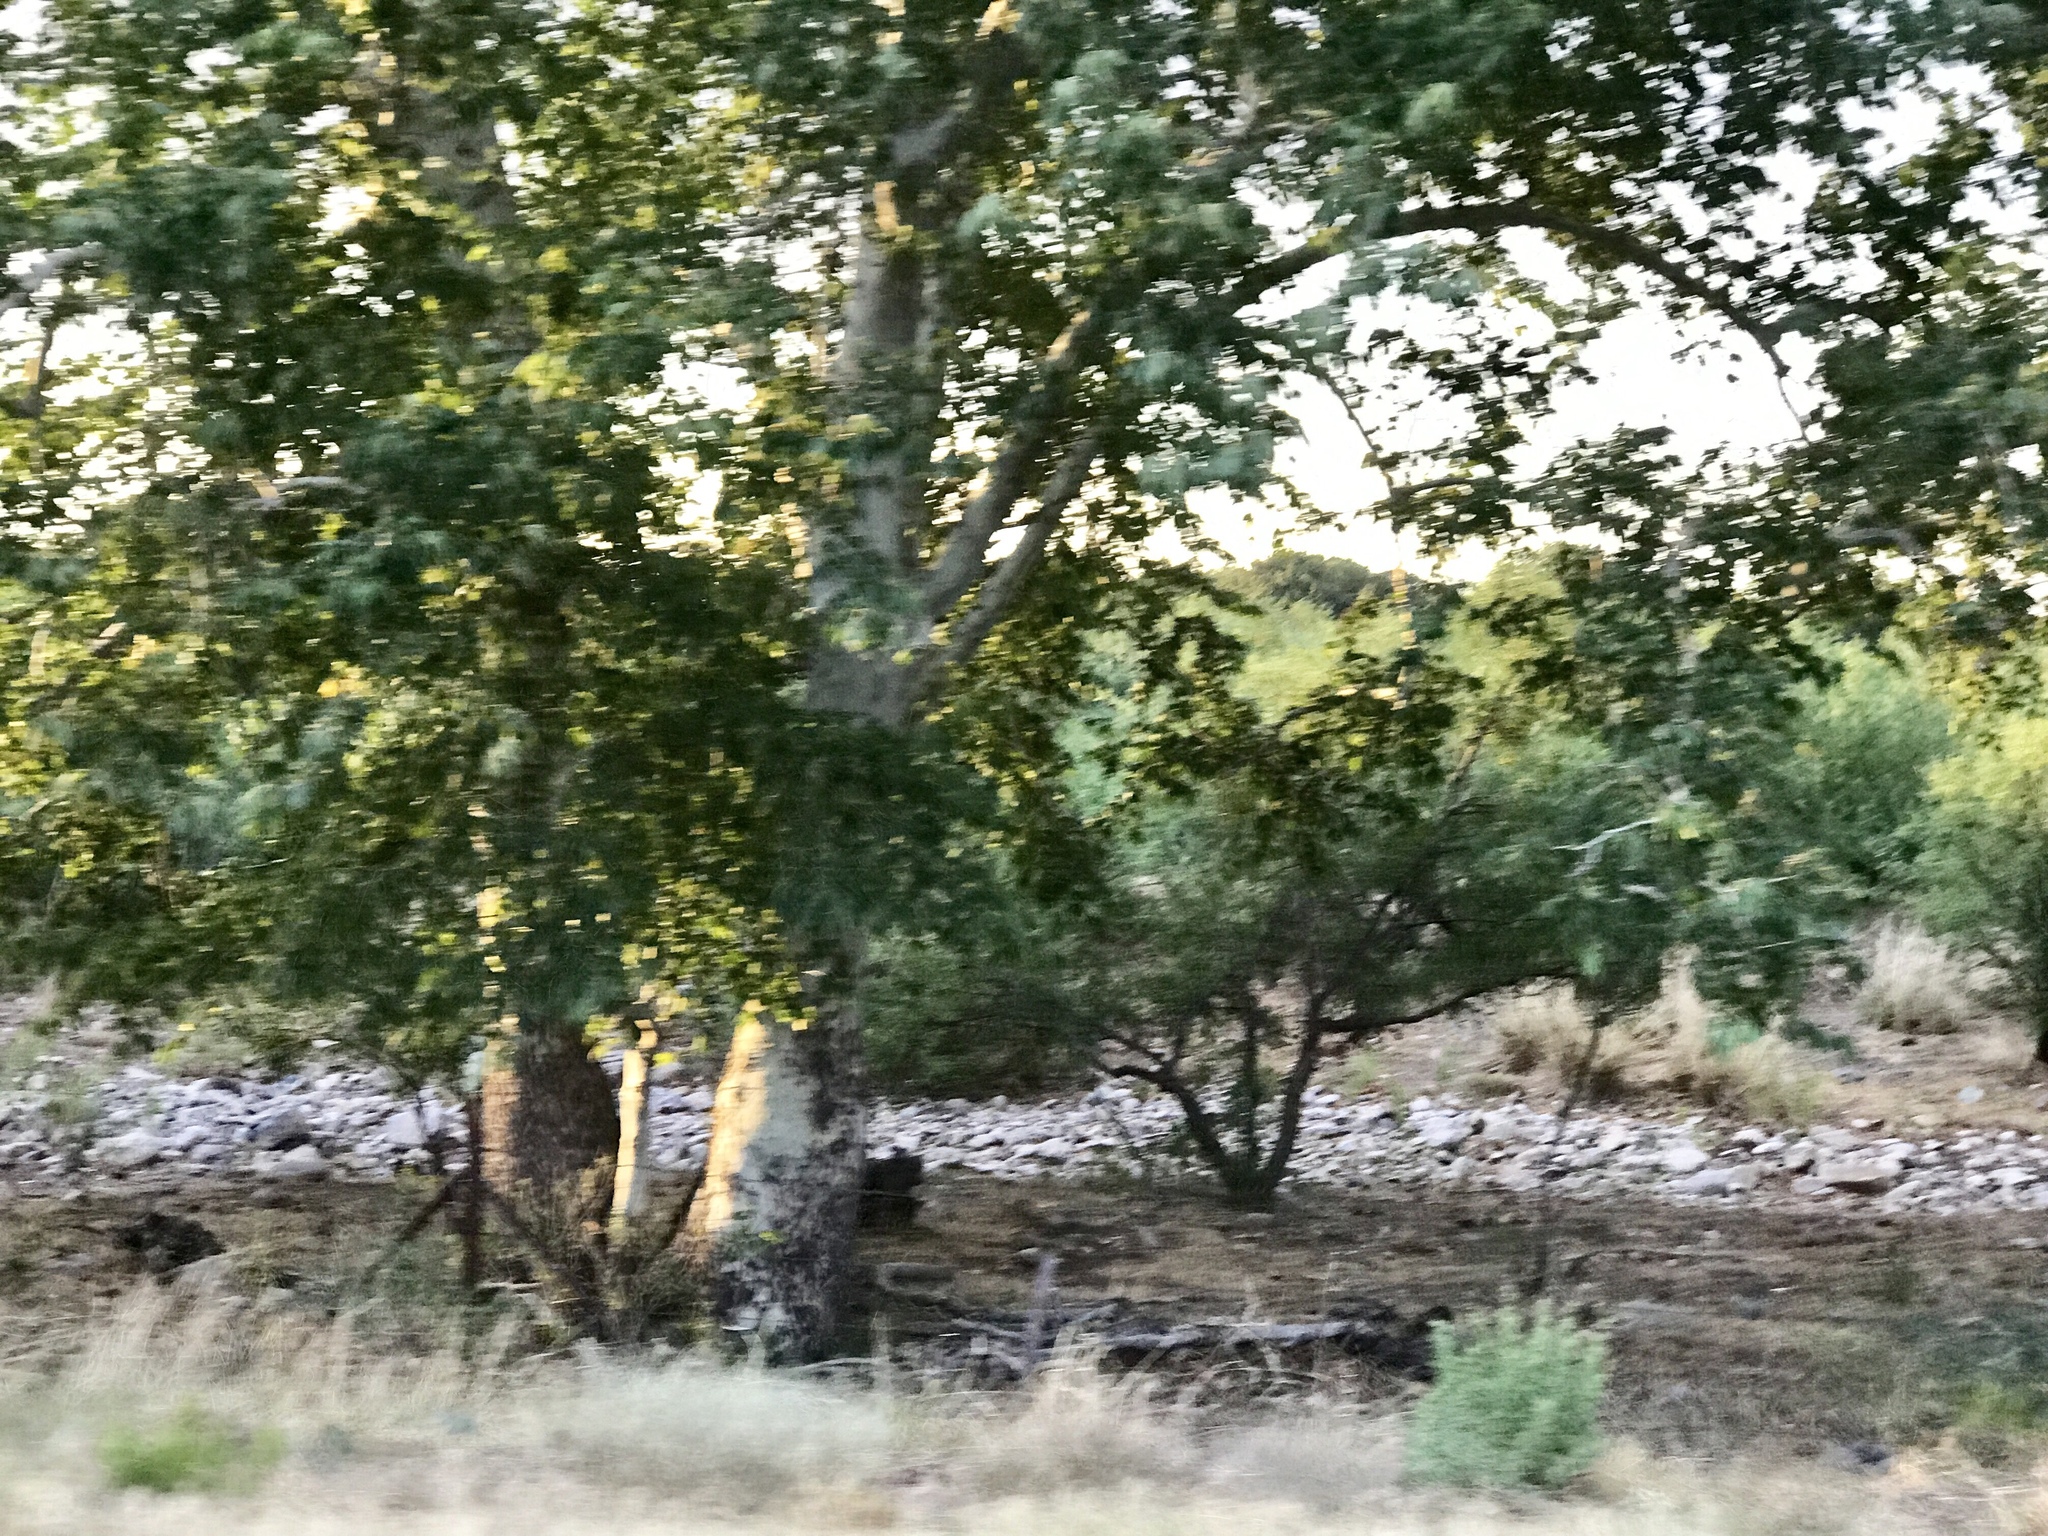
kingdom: Plantae
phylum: Tracheophyta
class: Magnoliopsida
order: Proteales
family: Platanaceae
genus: Platanus
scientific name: Platanus wrightii
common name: Arizona sycamore
